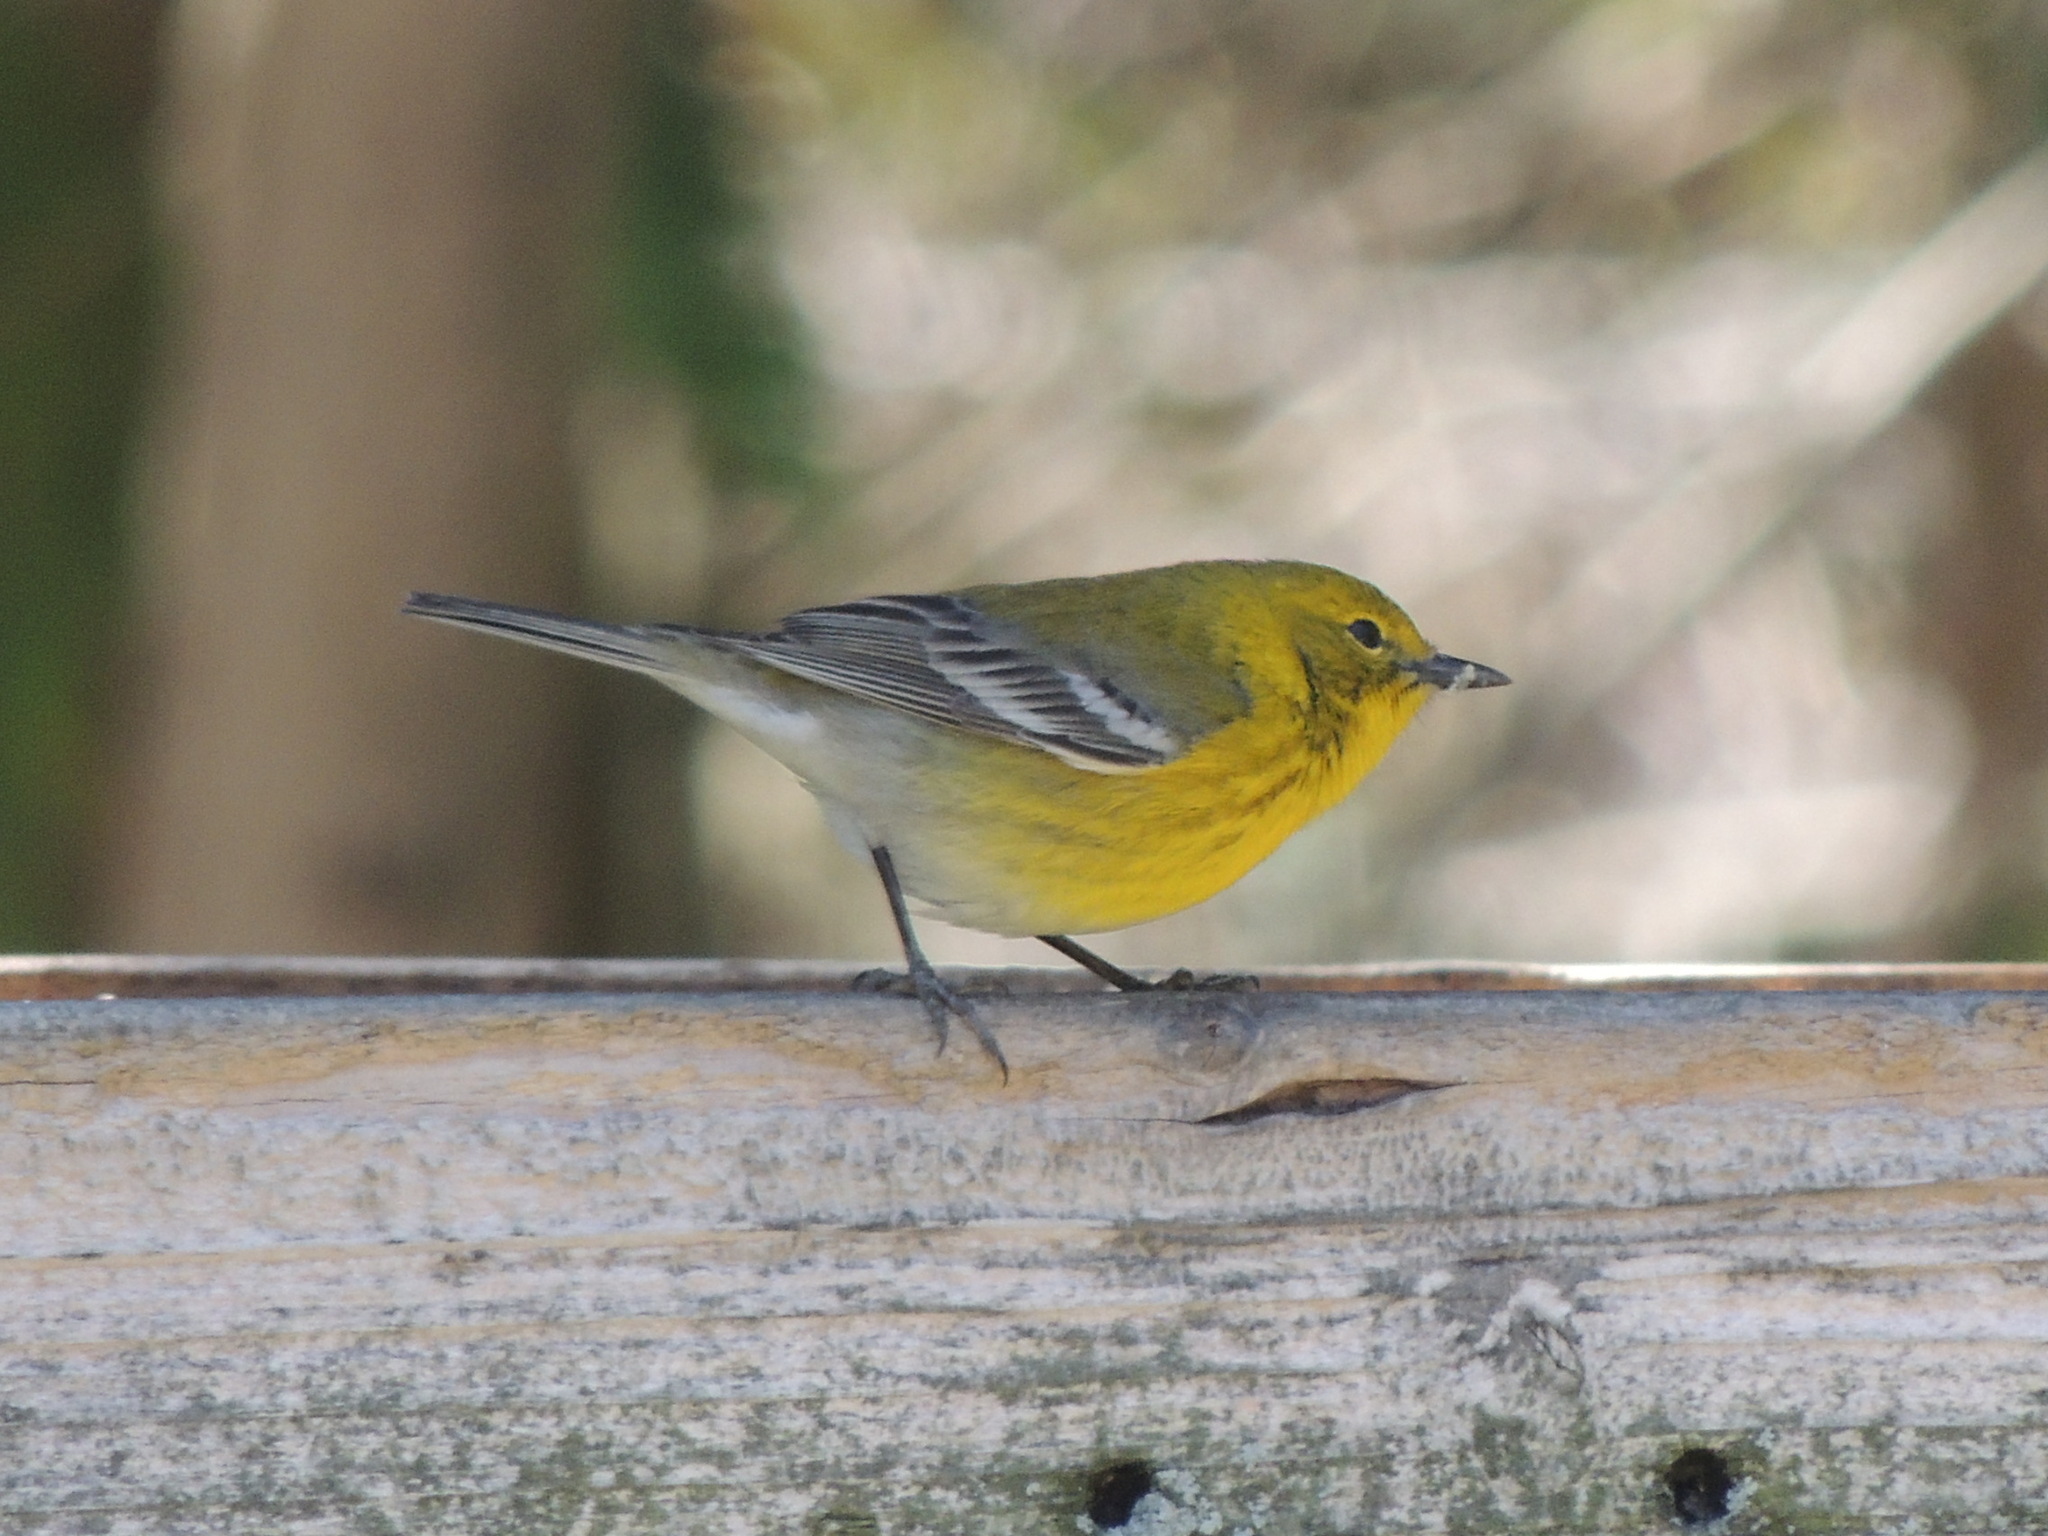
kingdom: Animalia
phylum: Chordata
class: Aves
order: Passeriformes
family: Parulidae
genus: Setophaga
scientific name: Setophaga pinus
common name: Pine warbler
